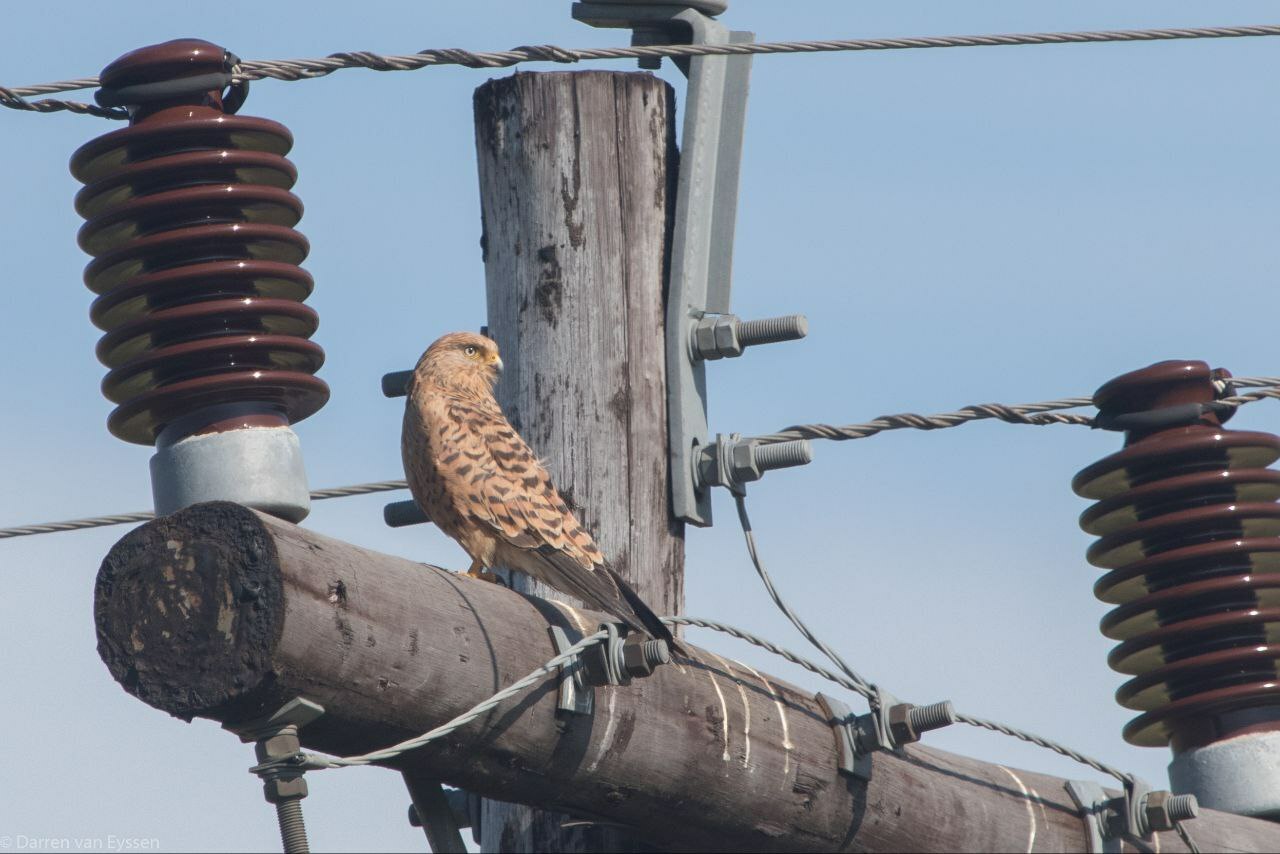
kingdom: Animalia
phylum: Chordata
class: Aves
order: Falconiformes
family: Falconidae
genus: Falco
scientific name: Falco rupicoloides
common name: Greater kestrel
